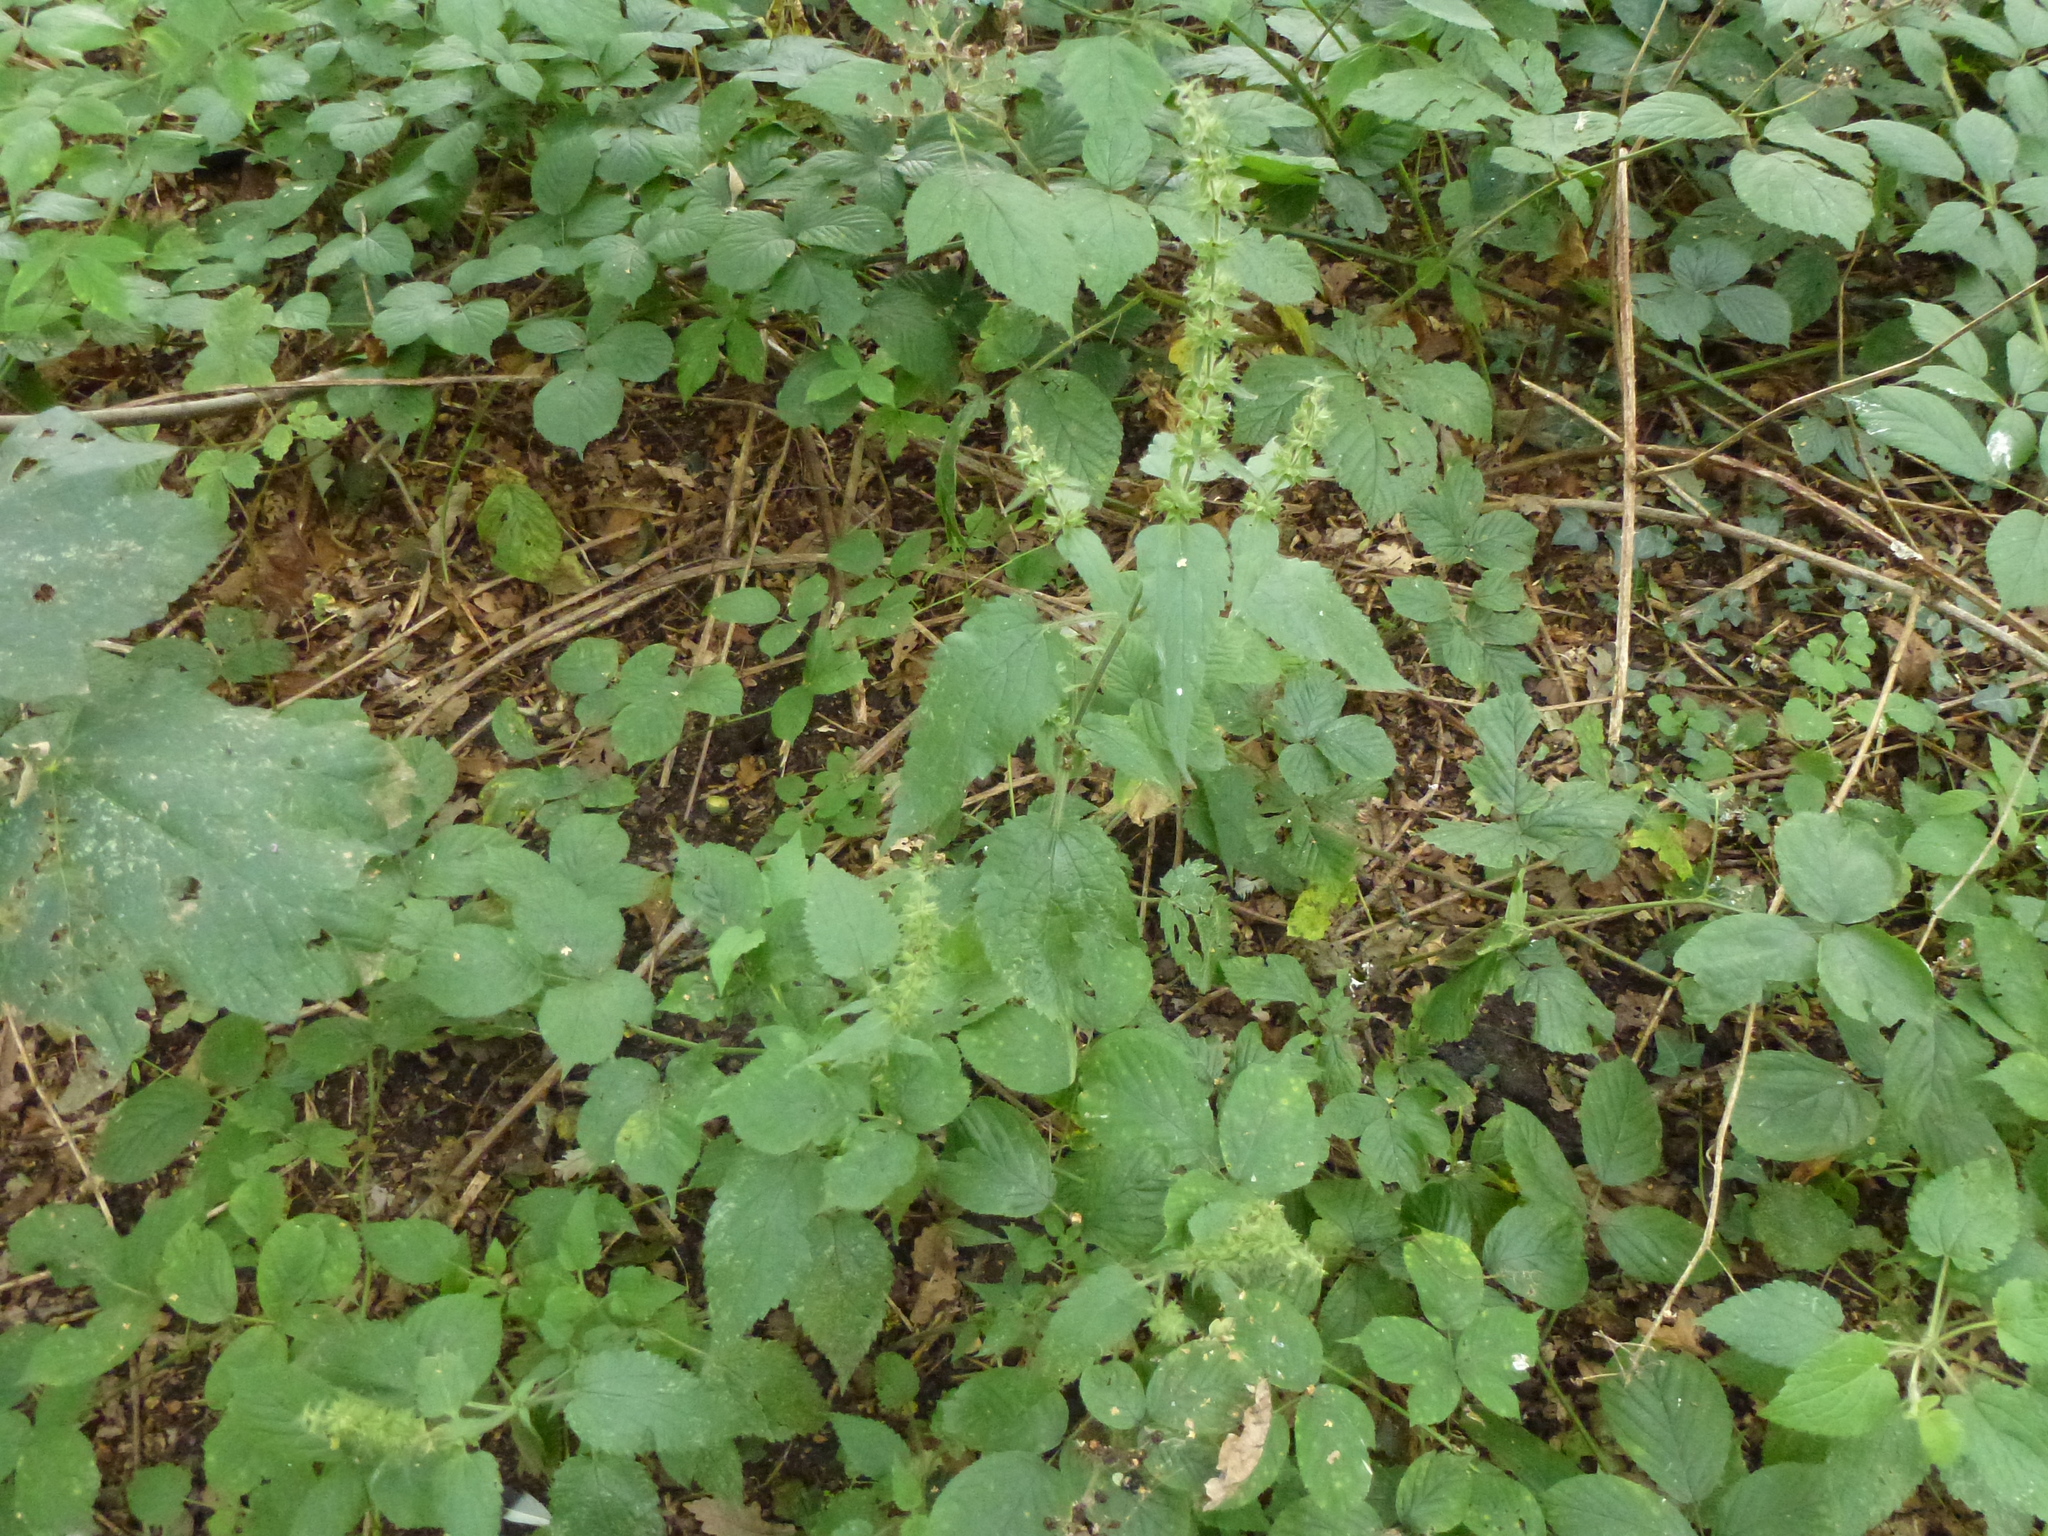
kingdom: Plantae
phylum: Tracheophyta
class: Magnoliopsida
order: Lamiales
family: Lamiaceae
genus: Stachys
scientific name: Stachys sylvatica
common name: Hedge woundwort
